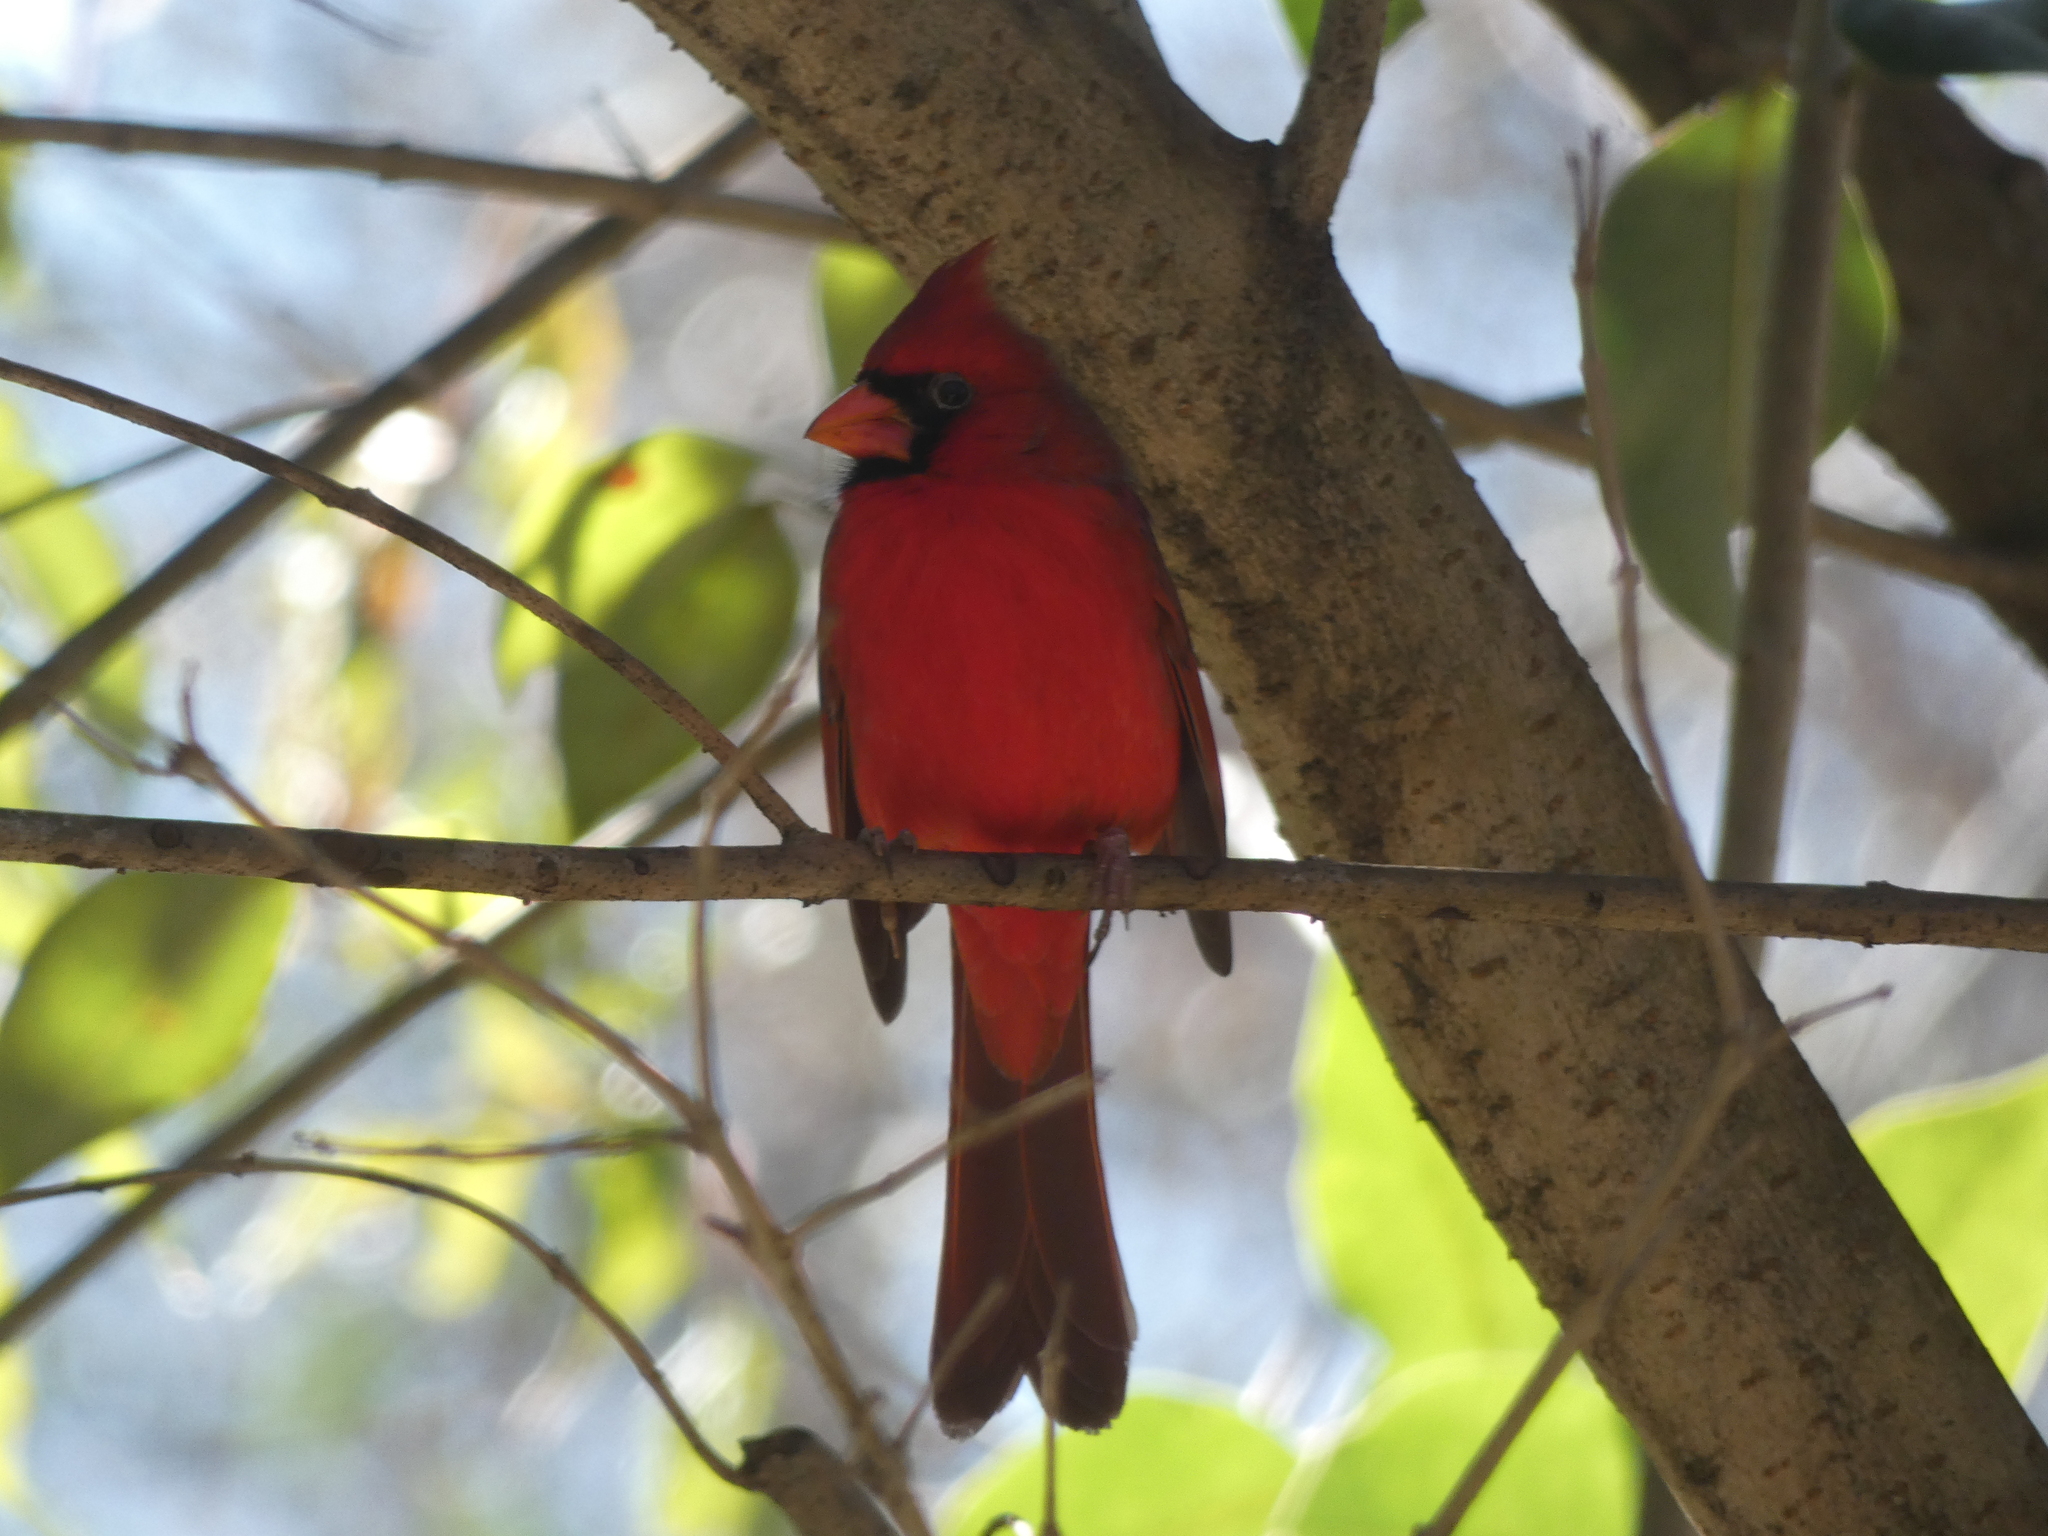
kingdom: Animalia
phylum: Chordata
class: Aves
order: Passeriformes
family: Cardinalidae
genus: Cardinalis
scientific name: Cardinalis cardinalis
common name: Northern cardinal
